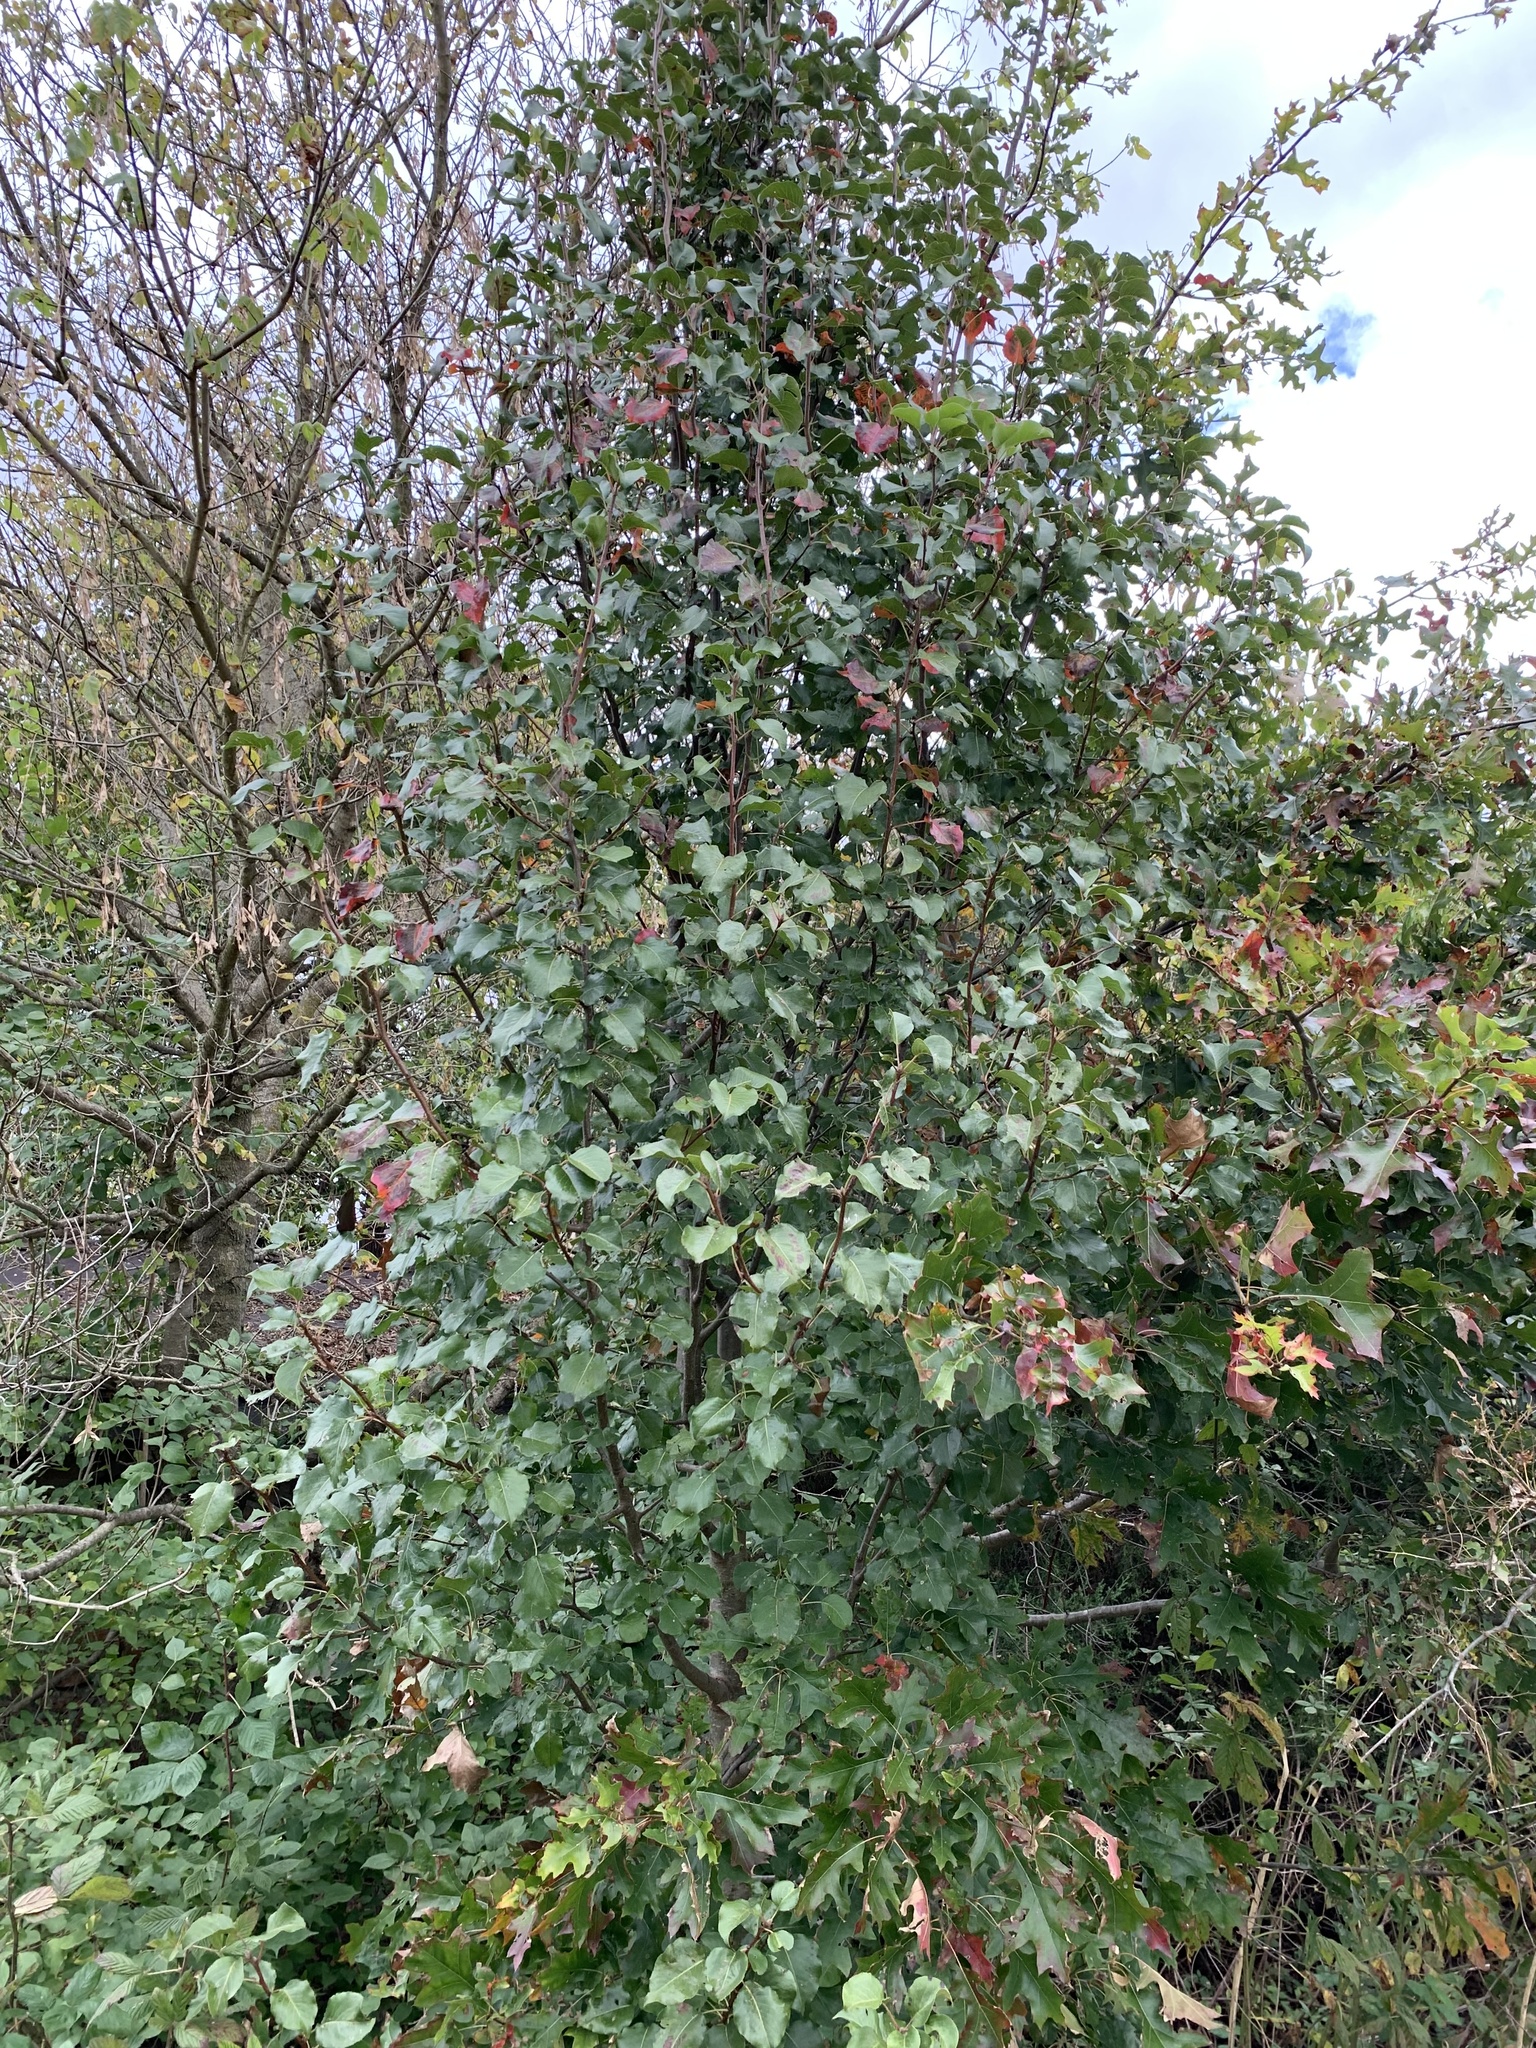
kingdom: Plantae
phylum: Tracheophyta
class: Magnoliopsida
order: Rosales
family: Rosaceae
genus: Pyrus
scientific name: Pyrus calleryana
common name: Callery pear
